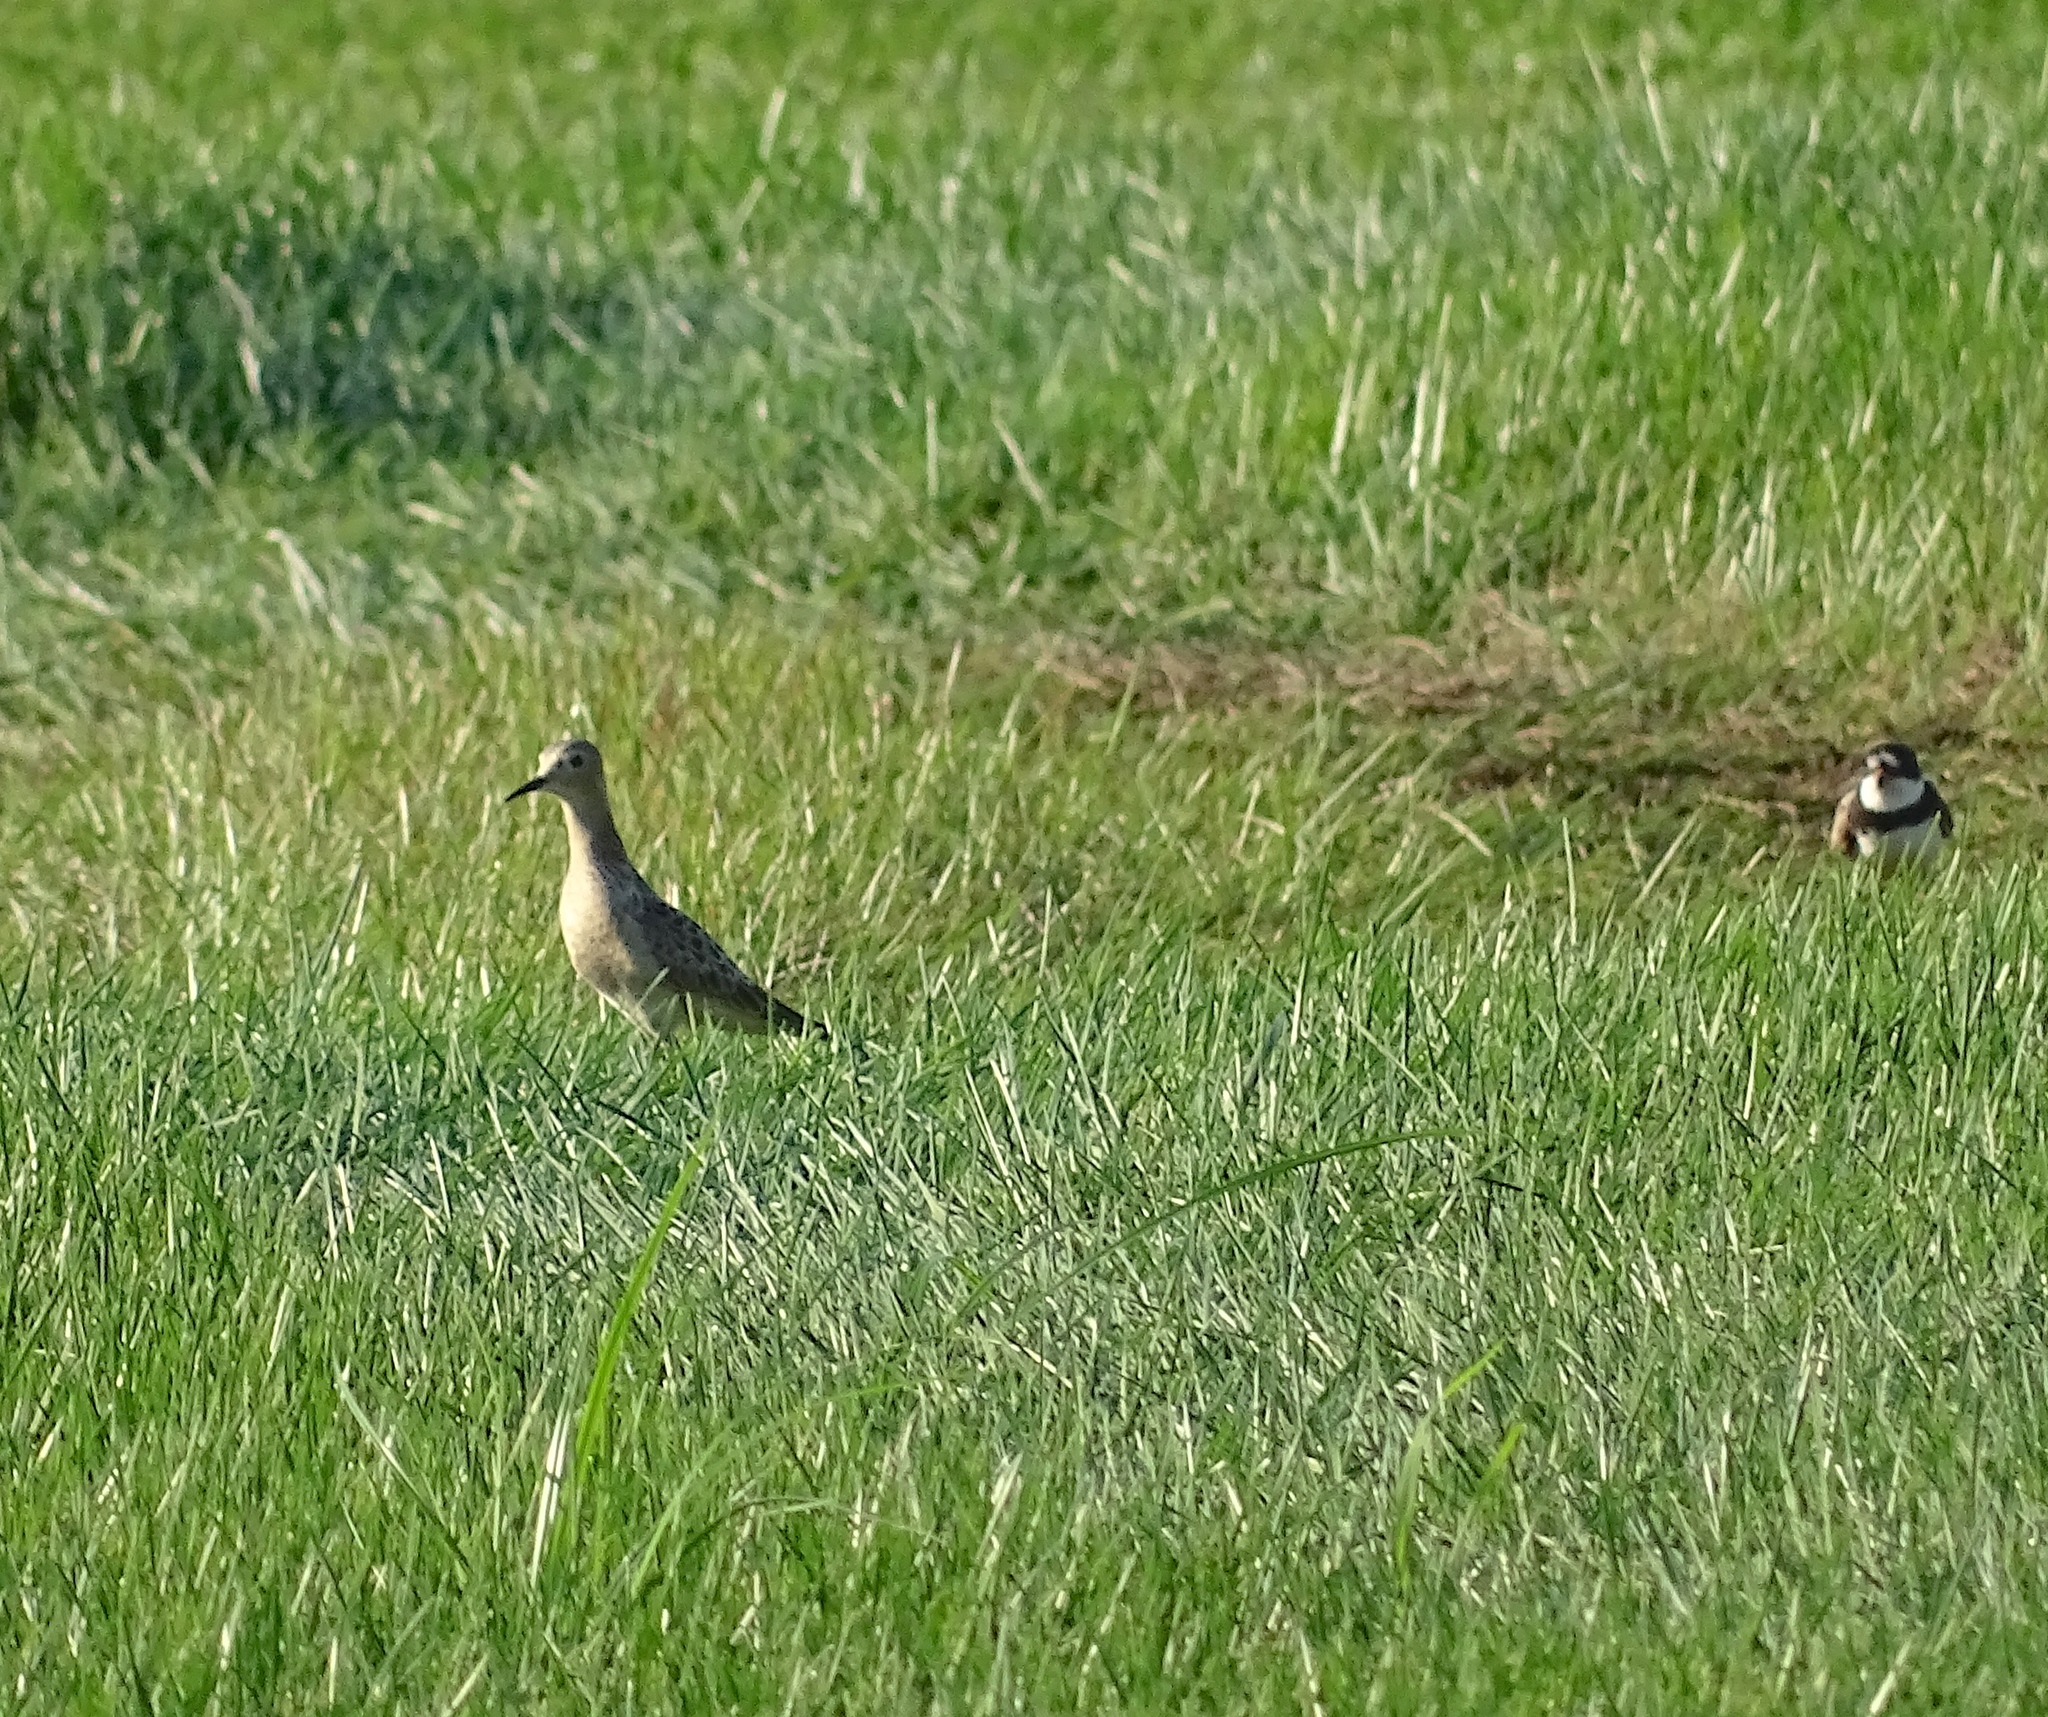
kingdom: Animalia
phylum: Chordata
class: Aves
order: Charadriiformes
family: Scolopacidae
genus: Calidris
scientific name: Calidris subruficollis
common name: Buff-breasted sandpiper
